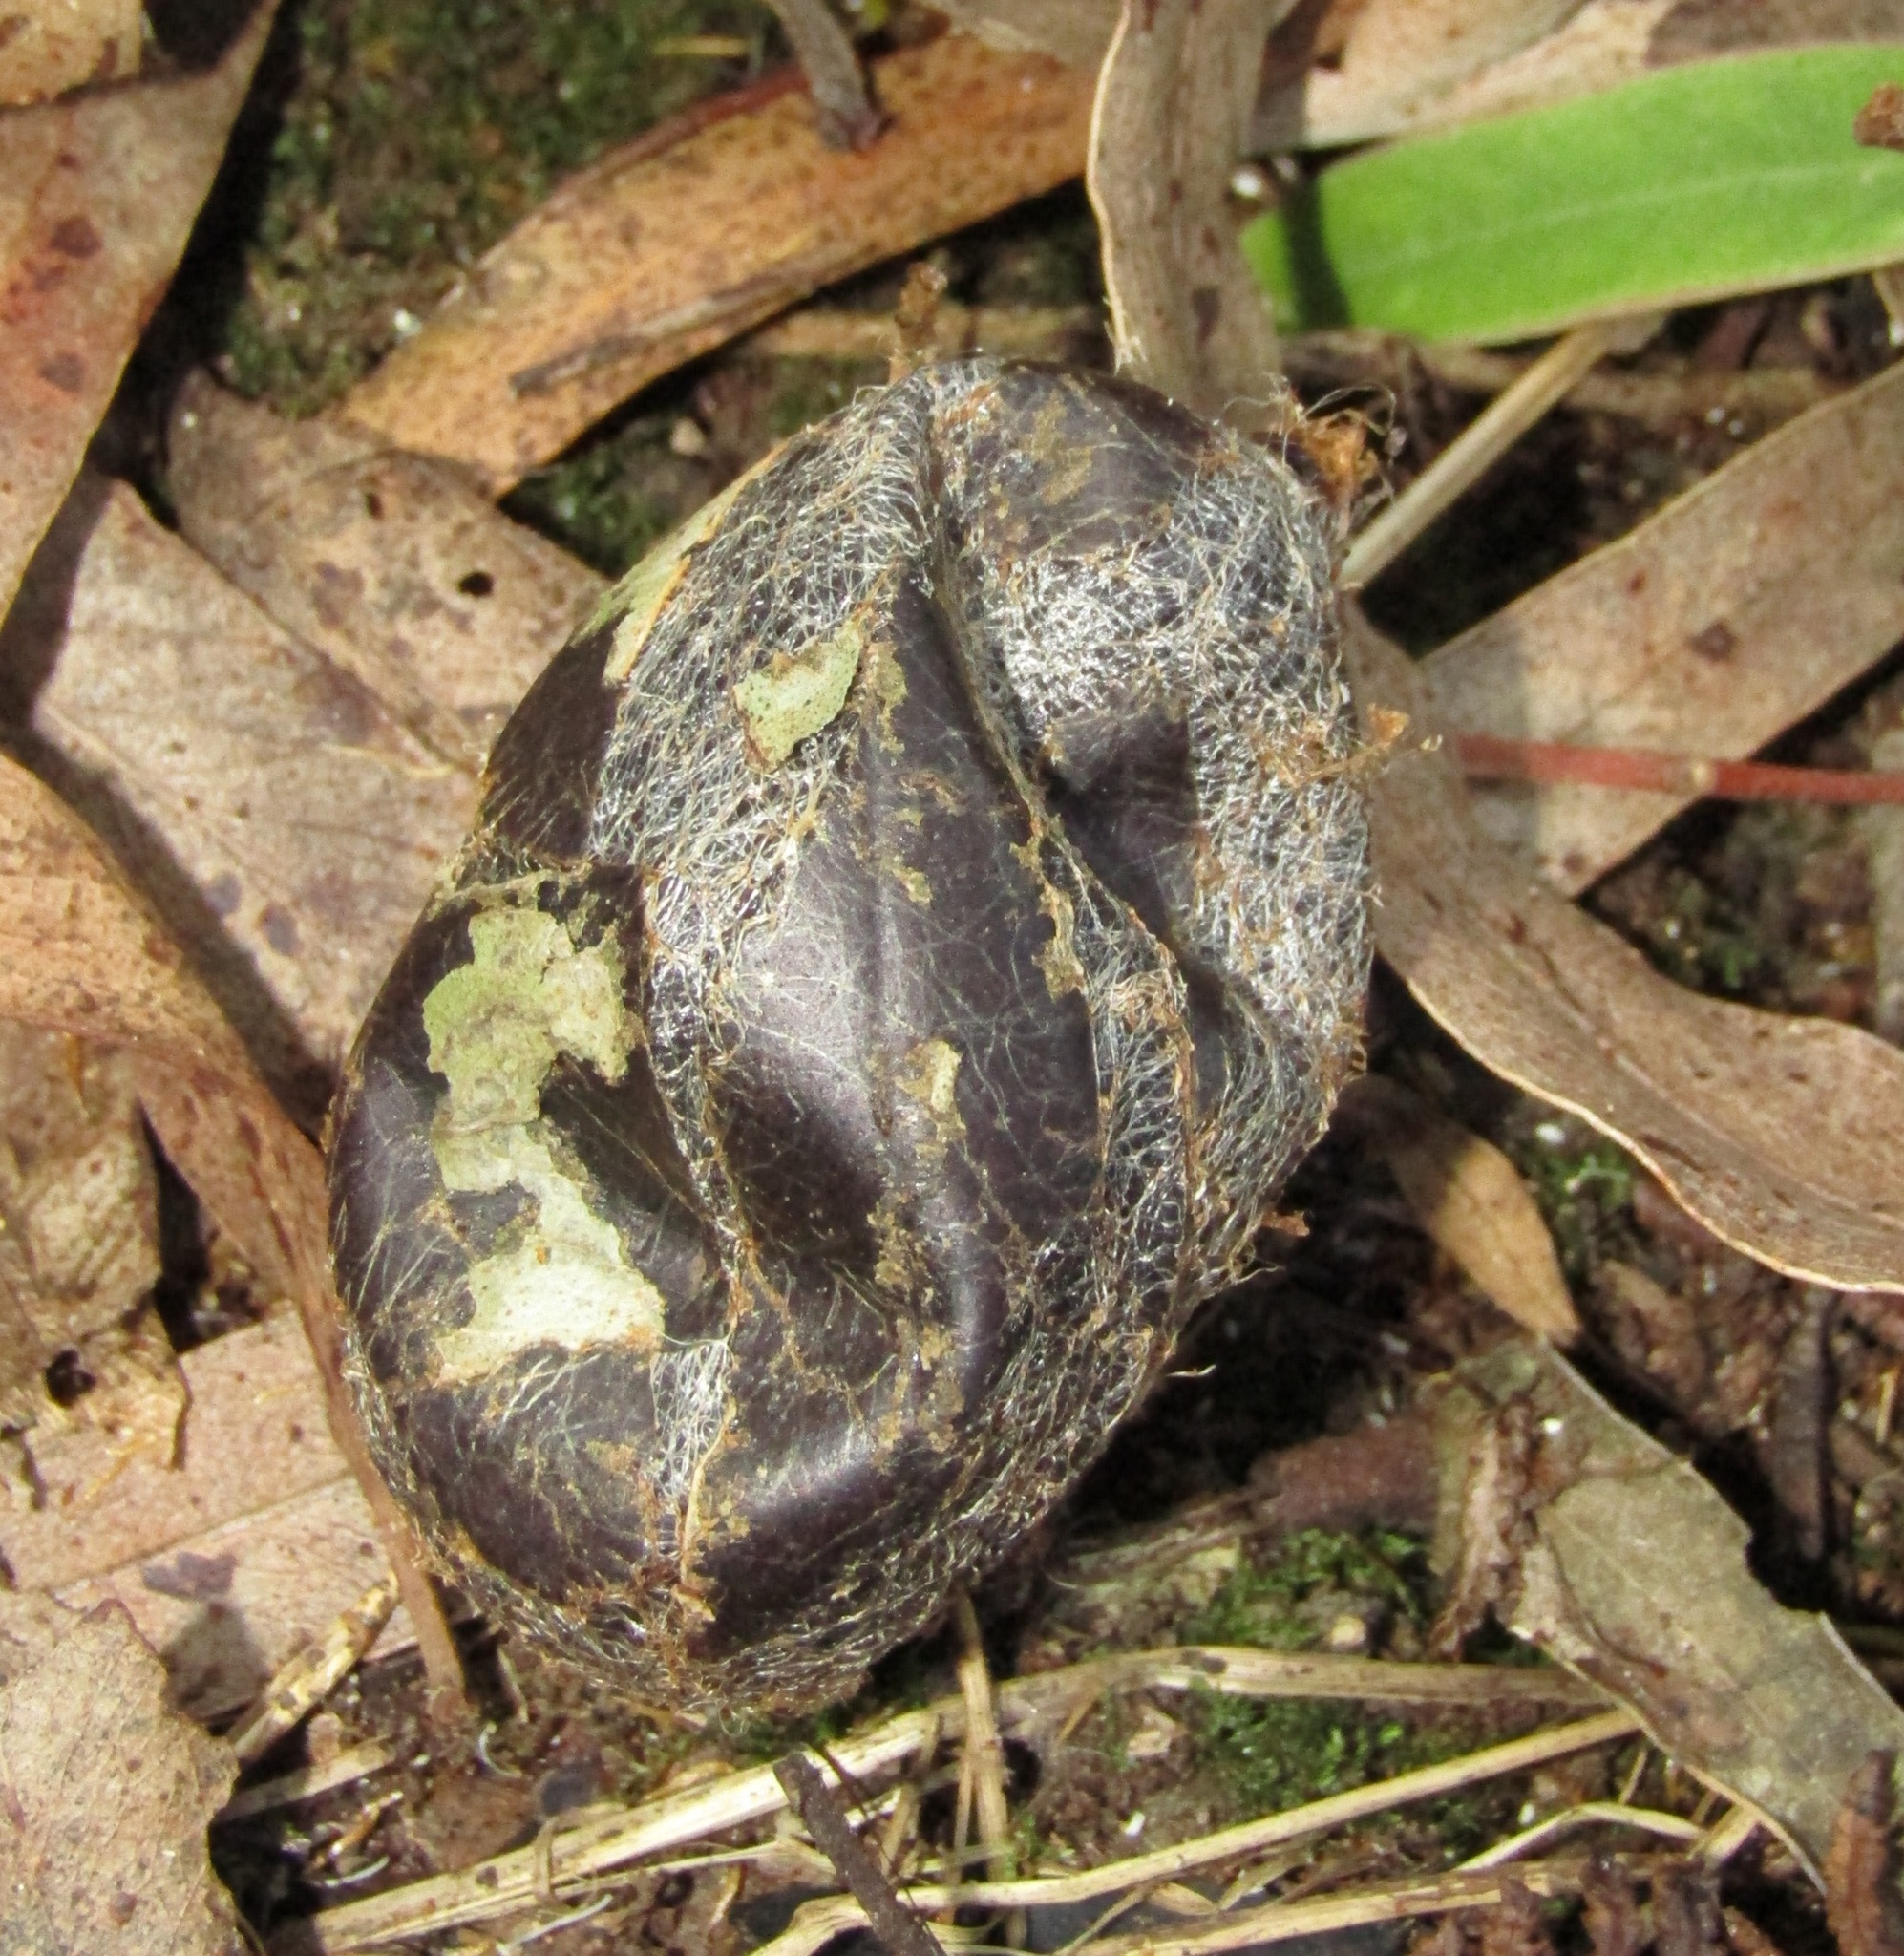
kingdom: Animalia
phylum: Arthropoda
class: Insecta
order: Lepidoptera
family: Saturniidae
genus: Opodiphthera
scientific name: Opodiphthera
